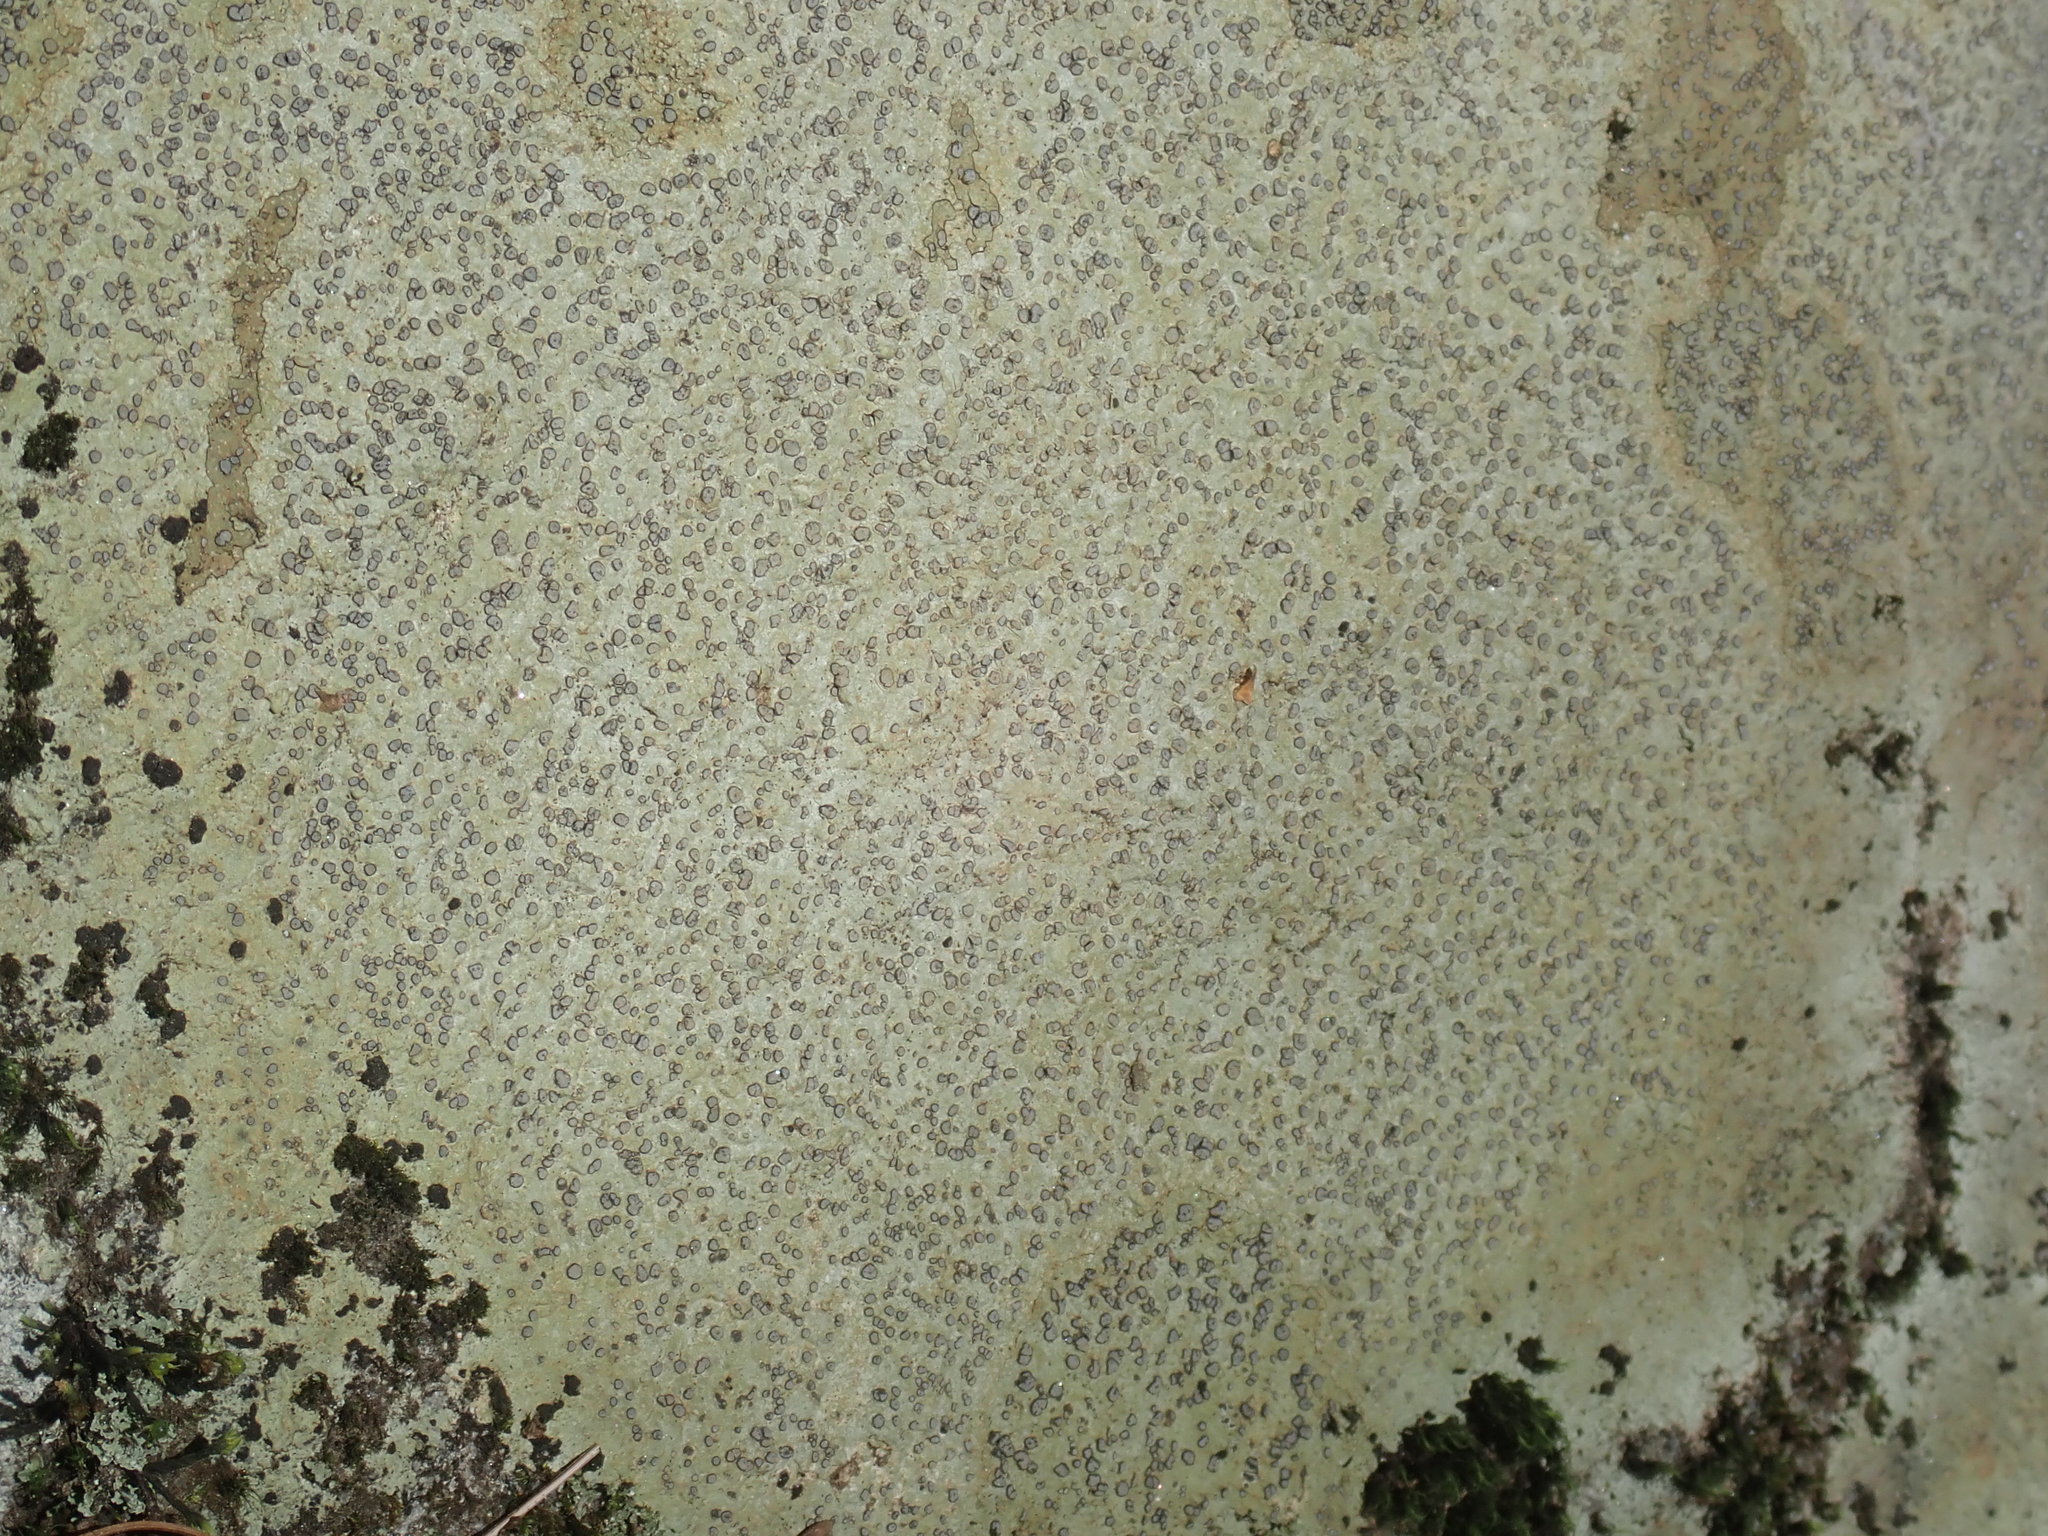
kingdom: Fungi
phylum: Ascomycota
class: Lecanoromycetes
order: Lecideales
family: Lecideaceae
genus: Porpidia
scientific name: Porpidia albocaerulescens
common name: Smokey-eyed boulder lichen
